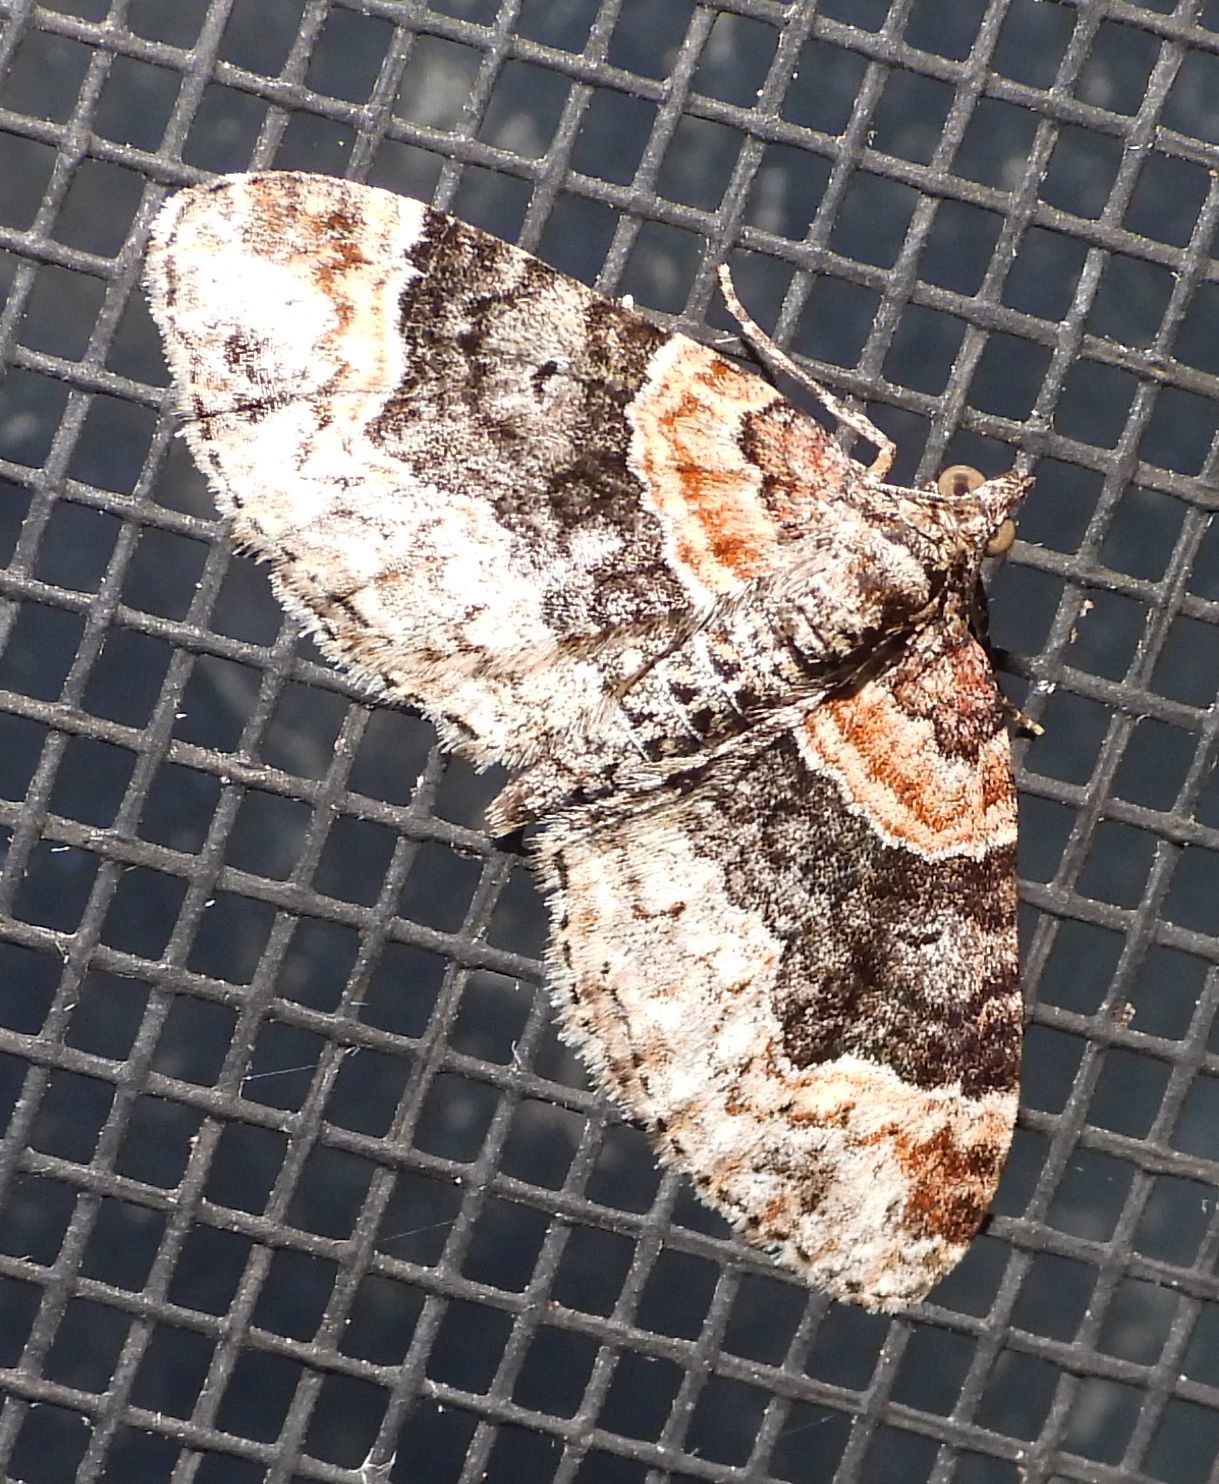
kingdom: Animalia
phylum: Arthropoda
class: Insecta
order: Lepidoptera
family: Geometridae
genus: Xanthorhoe
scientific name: Xanthorhoe ferrugata
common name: Dark-barred twin-spot carpet
